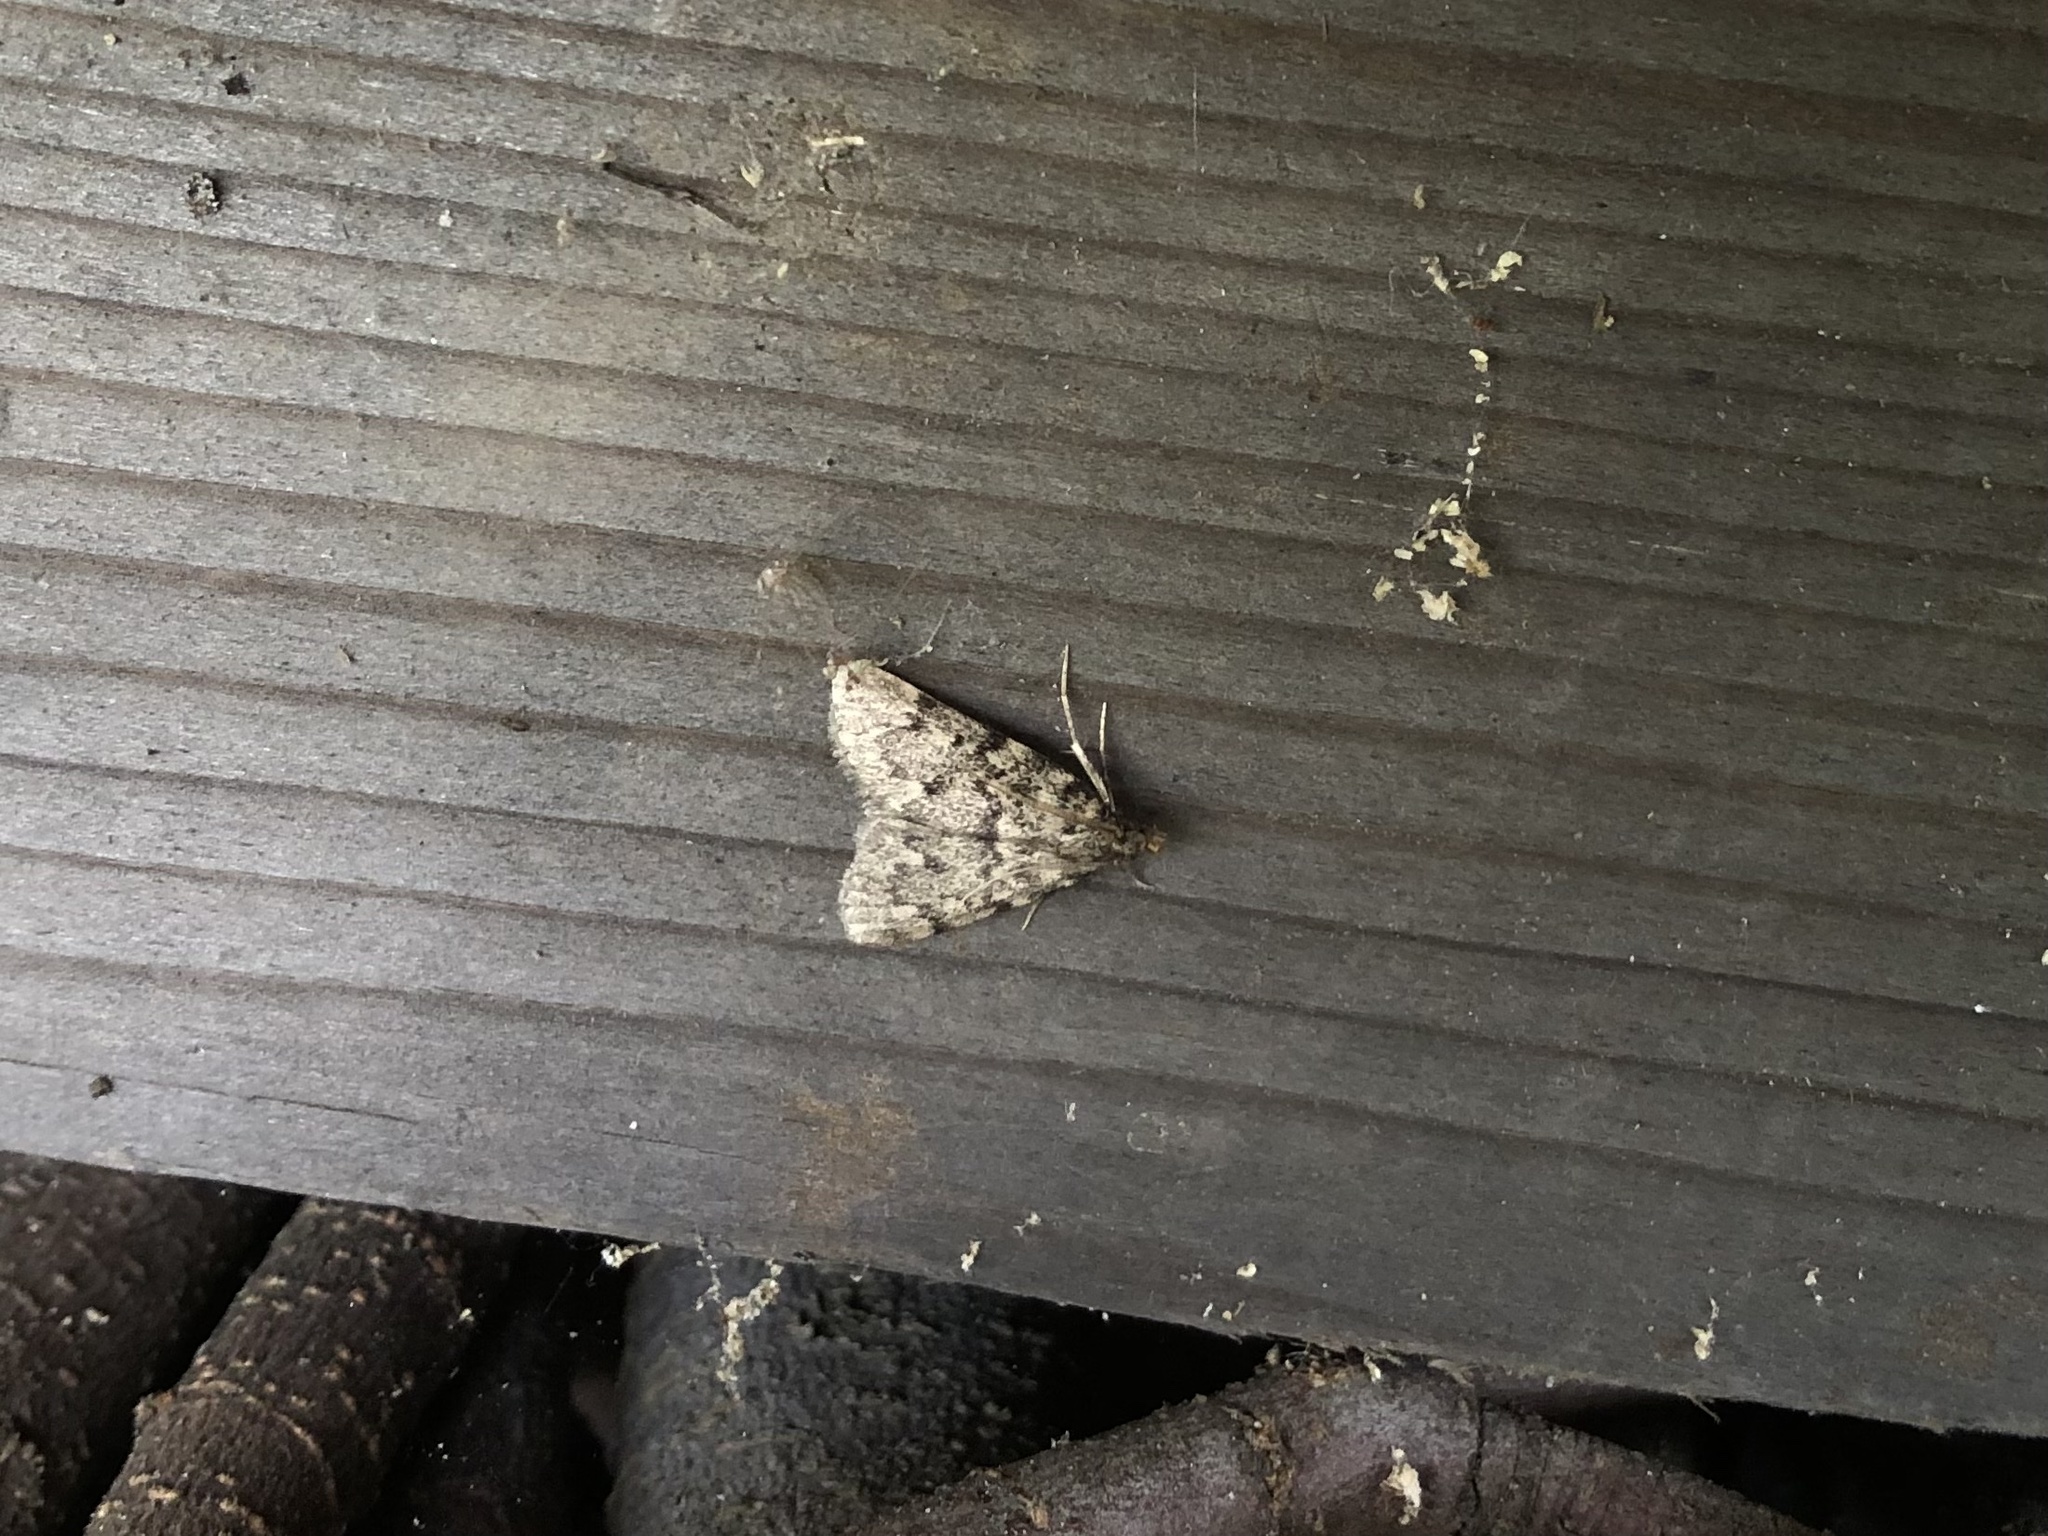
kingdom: Animalia
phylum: Arthropoda
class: Insecta
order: Lepidoptera
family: Pyralidae
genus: Aglossa
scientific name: Aglossa pinguinalis
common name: Large tabby
